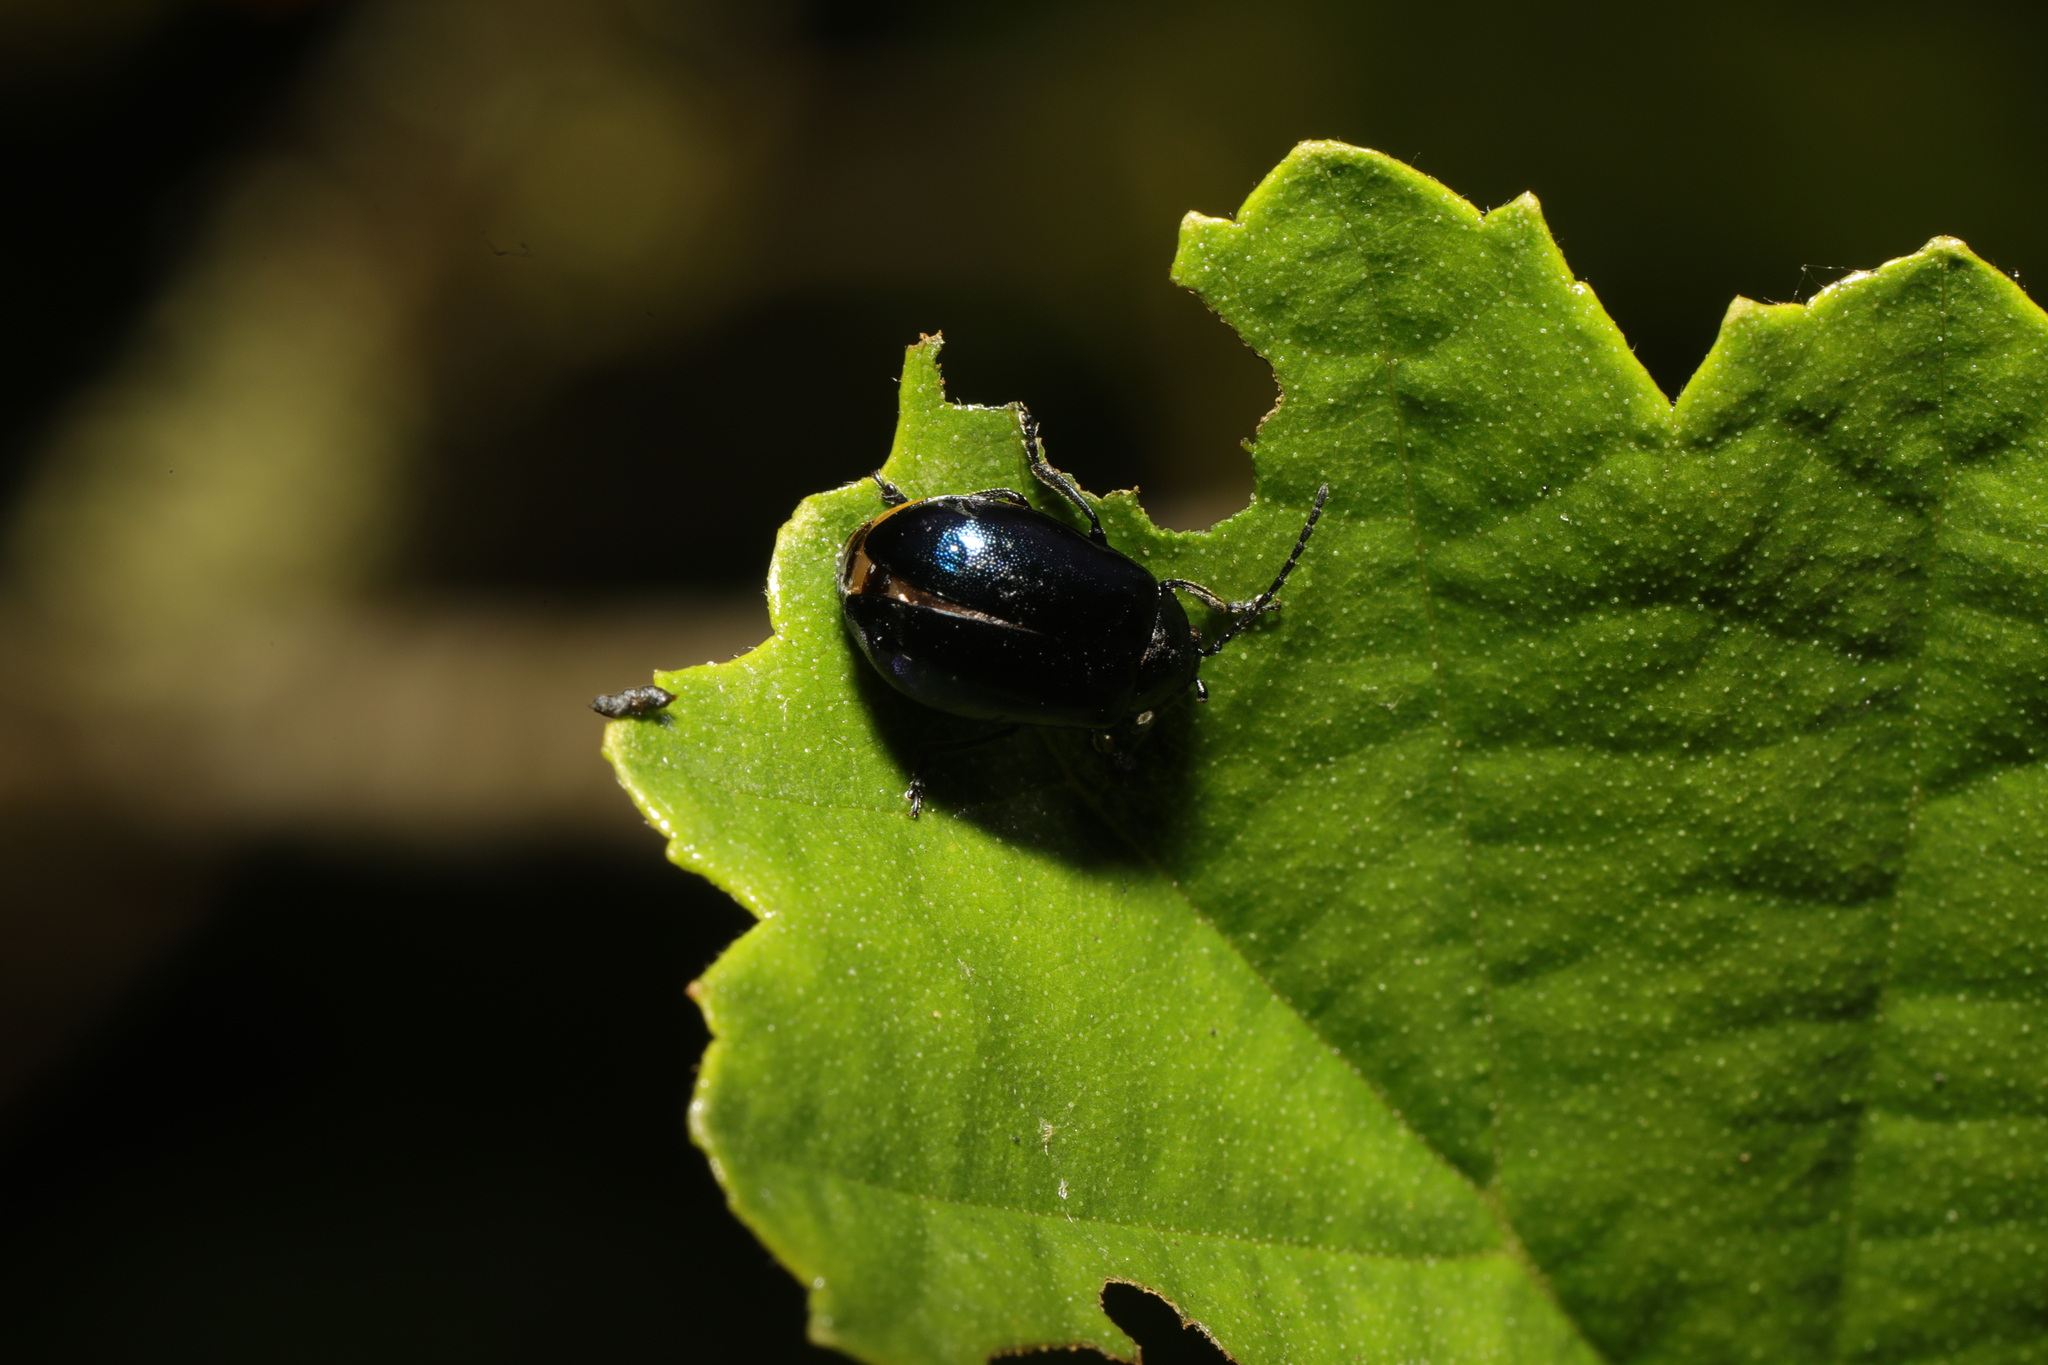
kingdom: Animalia
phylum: Arthropoda
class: Insecta
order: Coleoptera
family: Chrysomelidae
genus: Agelastica
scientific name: Agelastica alni
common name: Alder leaf beetle
